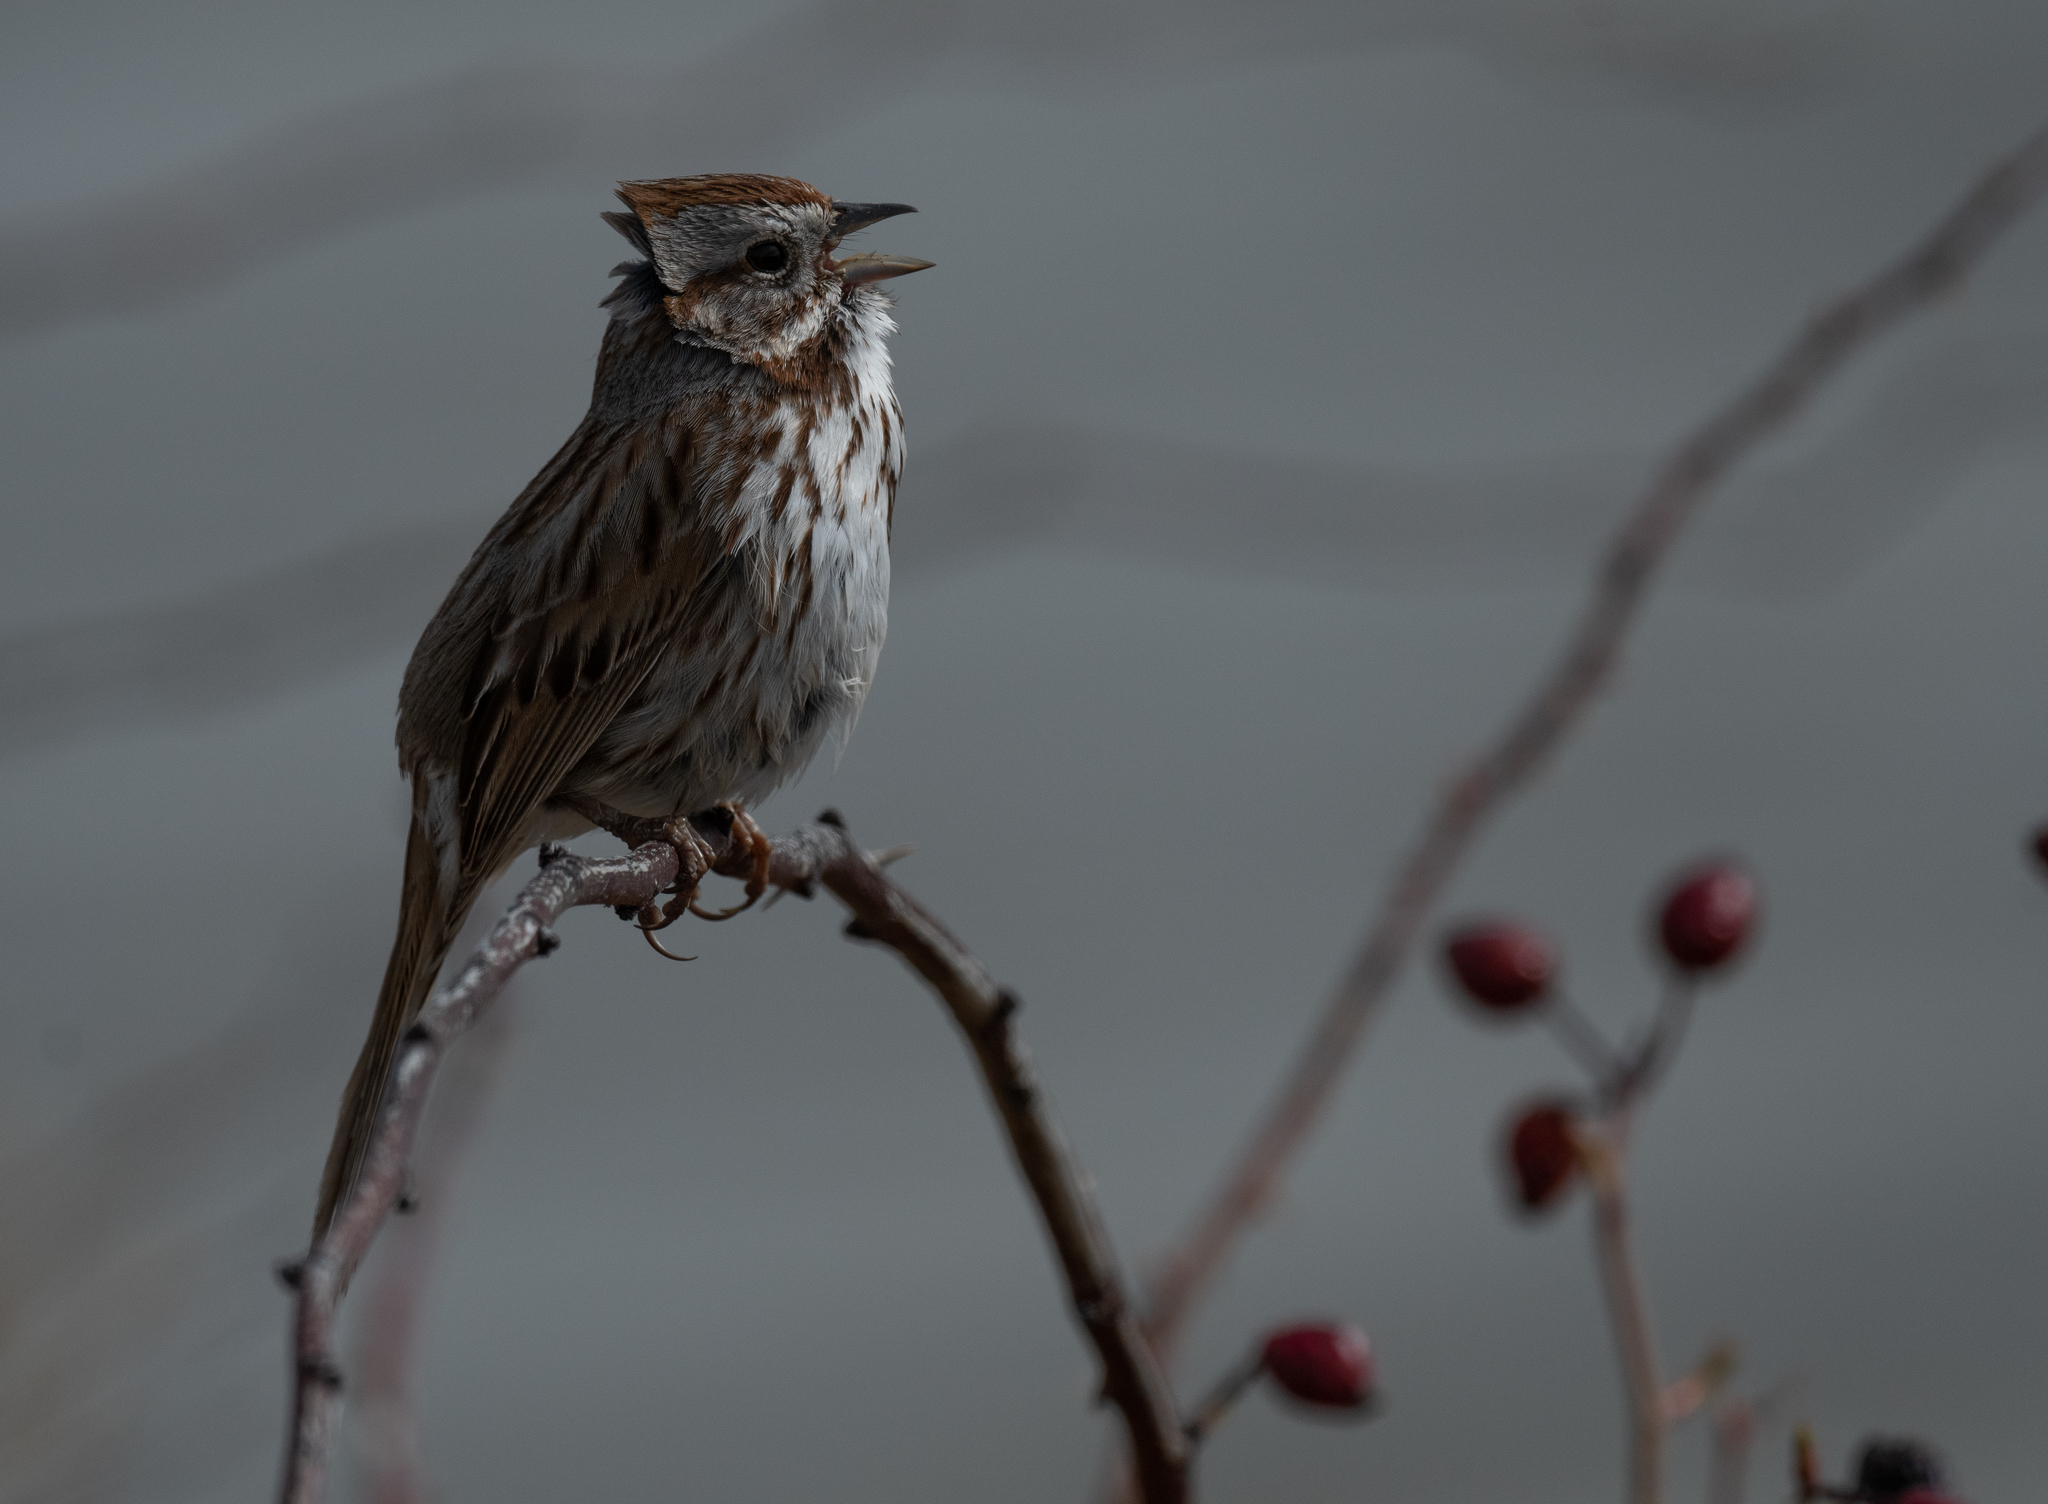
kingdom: Animalia
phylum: Chordata
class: Aves
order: Passeriformes
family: Passerellidae
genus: Melospiza
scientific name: Melospiza melodia
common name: Song sparrow
